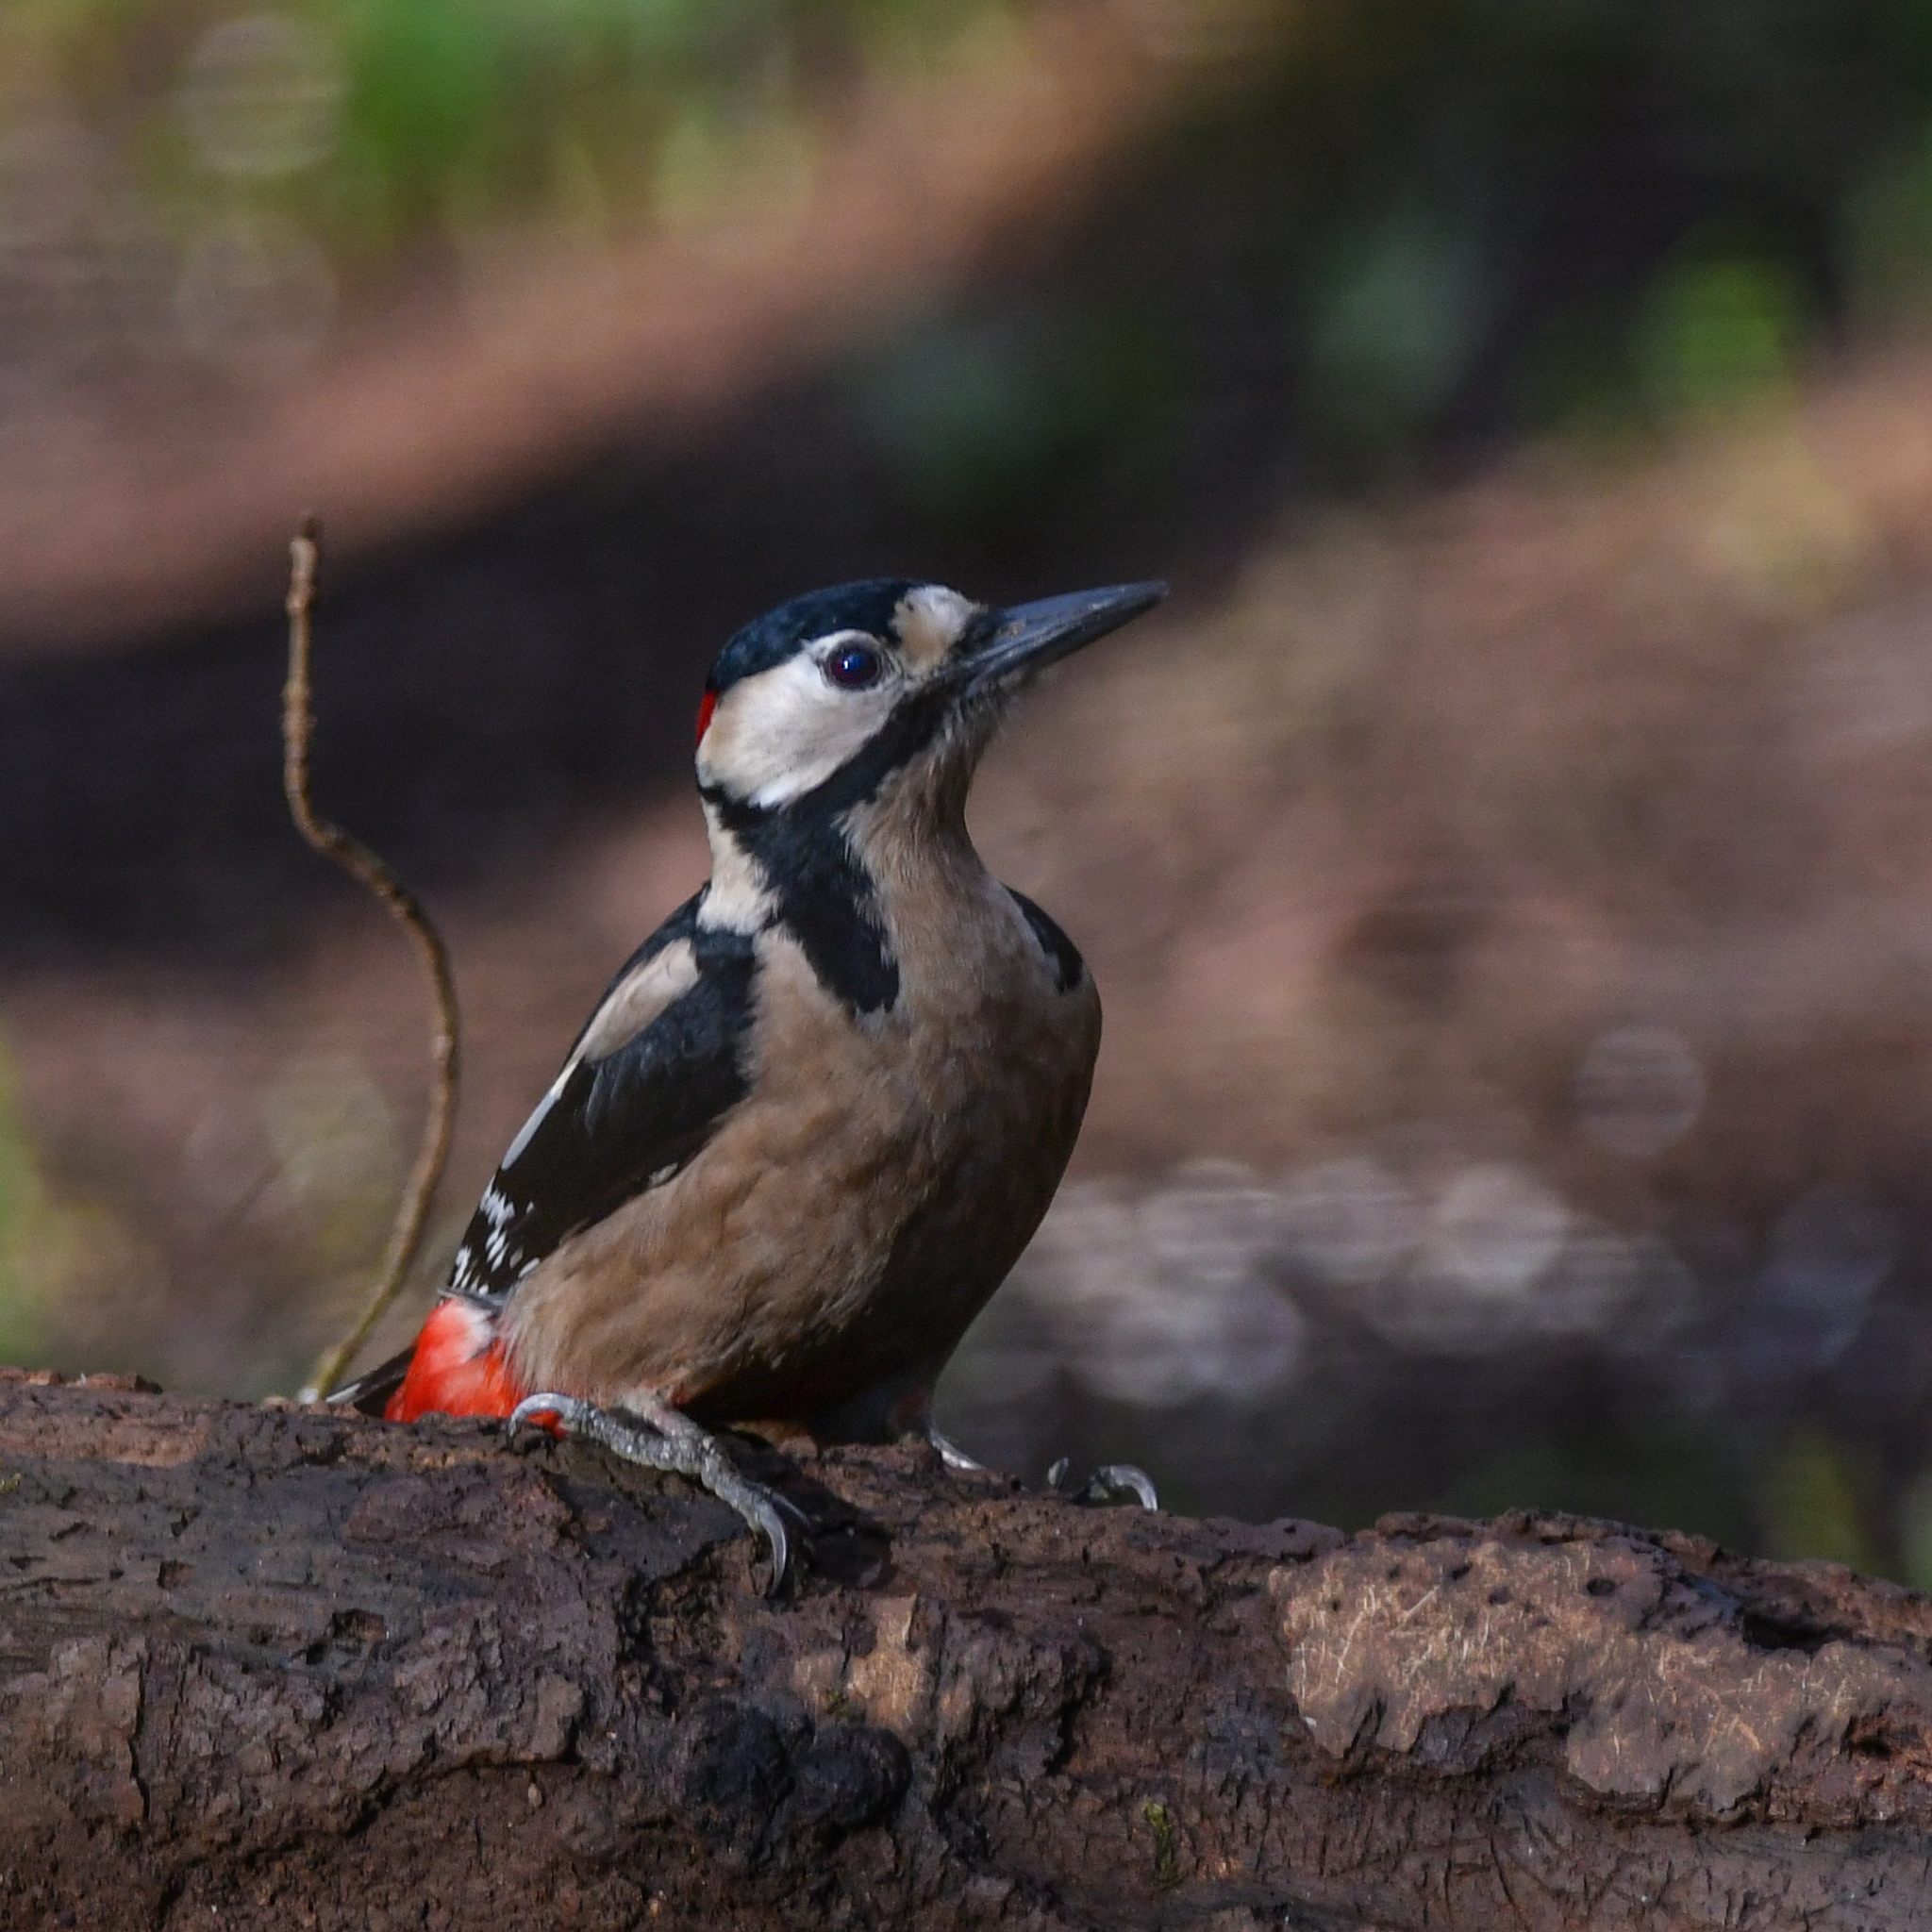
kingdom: Animalia
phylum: Chordata
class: Aves
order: Piciformes
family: Picidae
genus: Dendrocopos
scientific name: Dendrocopos major
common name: Great spotted woodpecker
